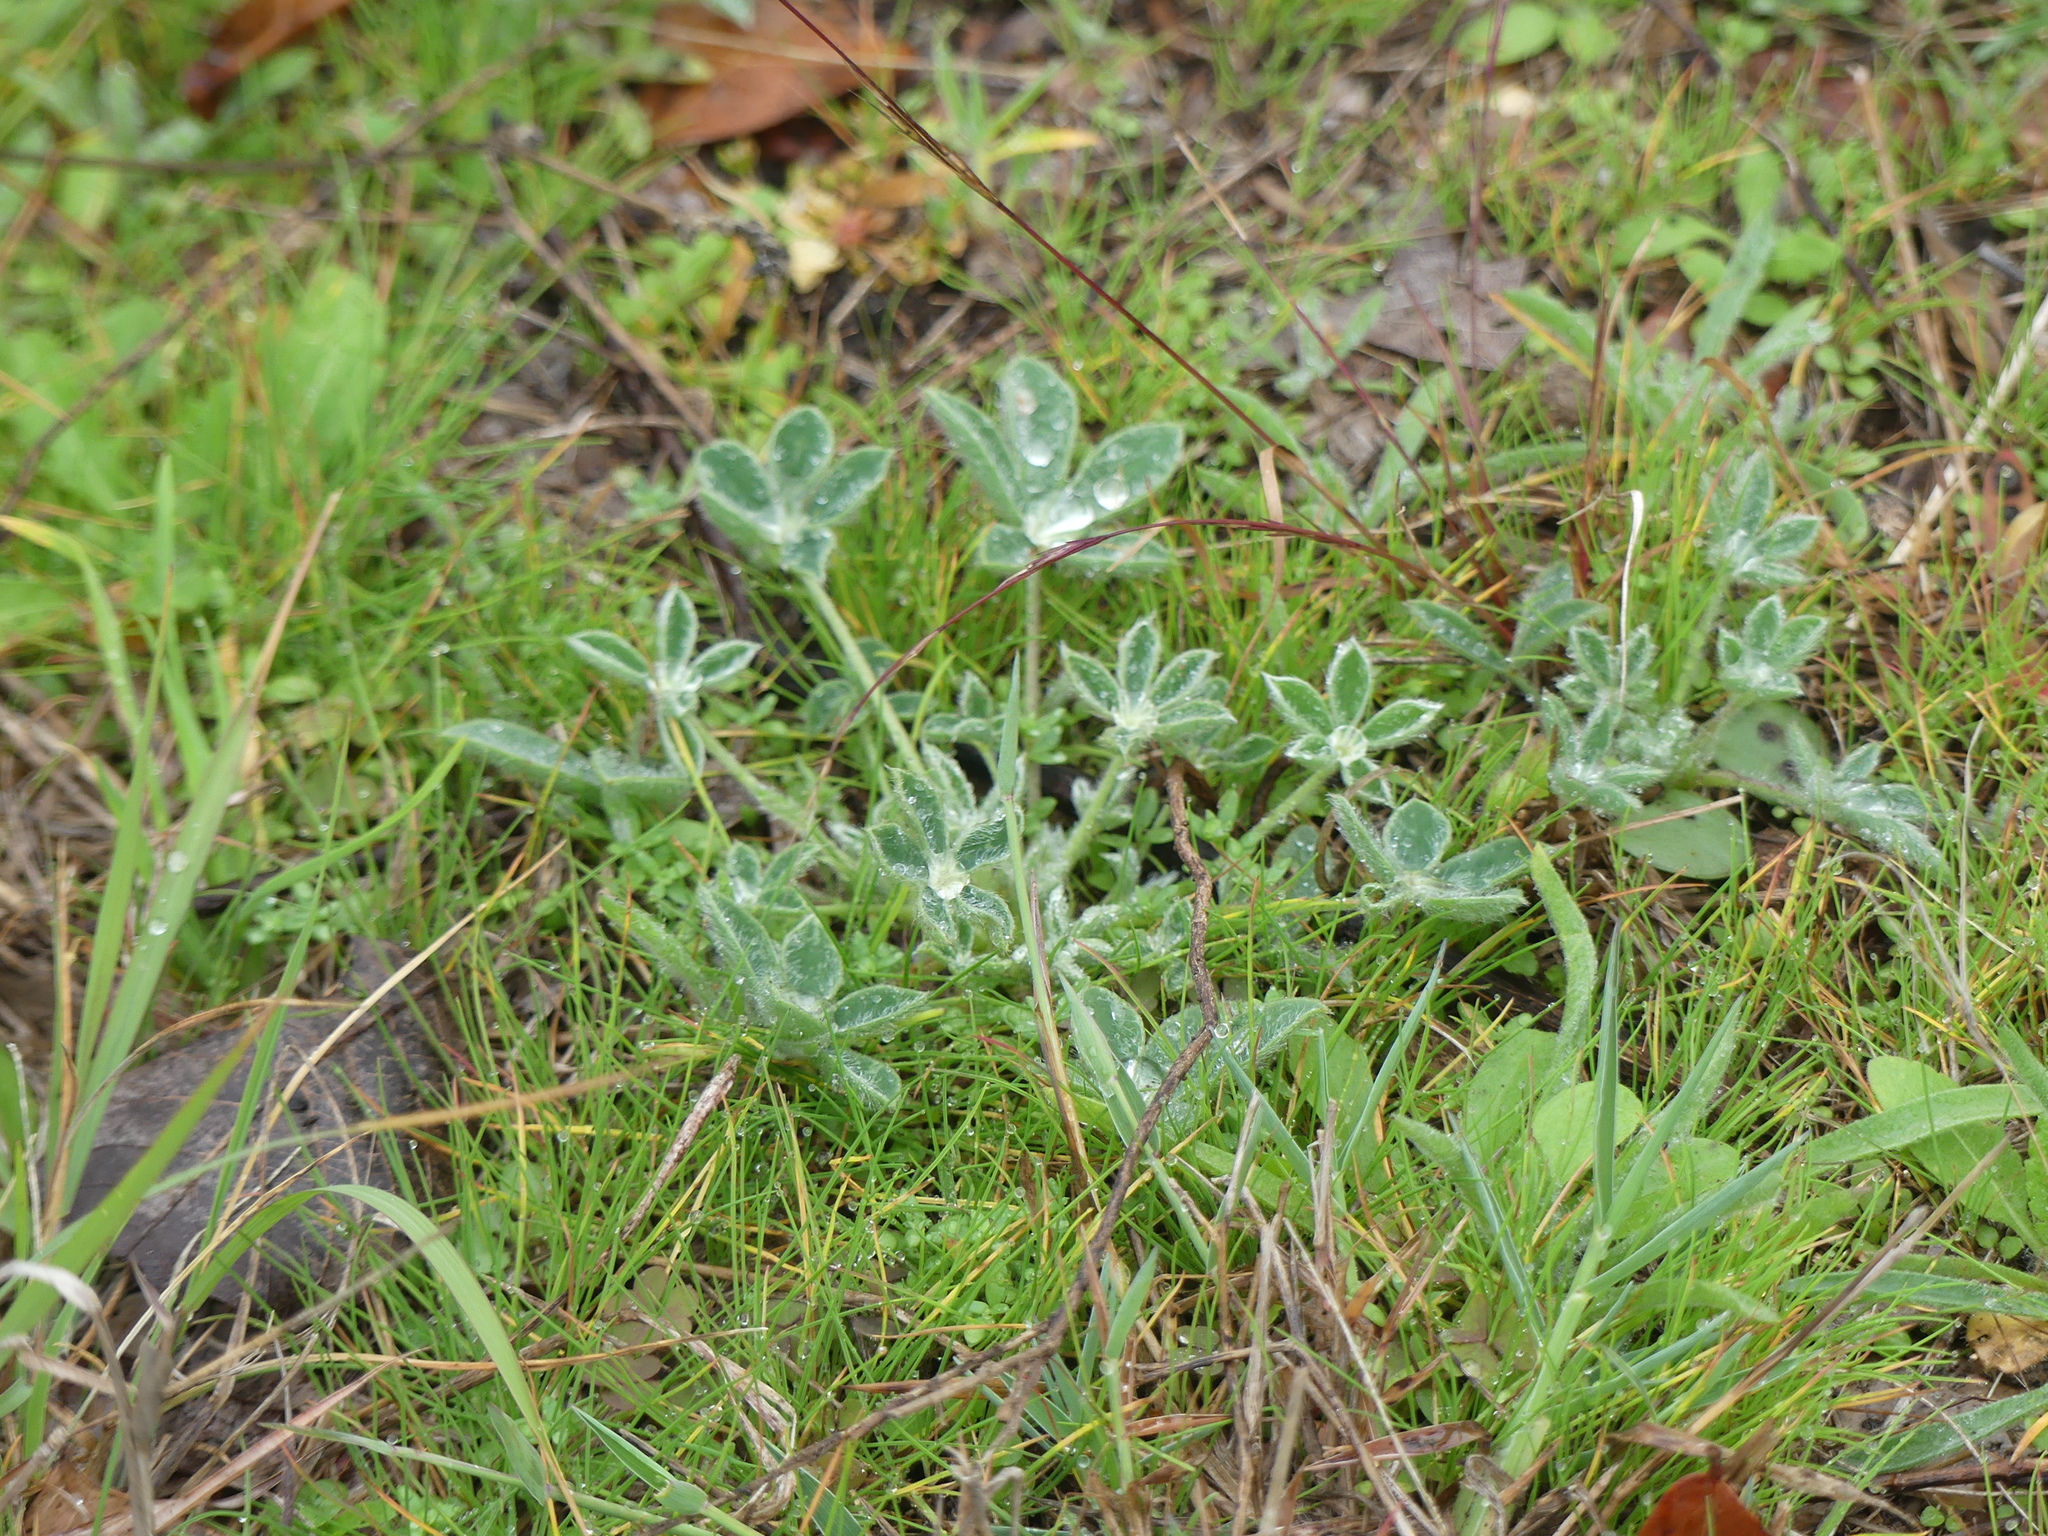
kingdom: Plantae
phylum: Tracheophyta
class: Magnoliopsida
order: Fabales
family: Fabaceae
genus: Lupinus
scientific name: Lupinus texensis
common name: Texas bluebonnet
